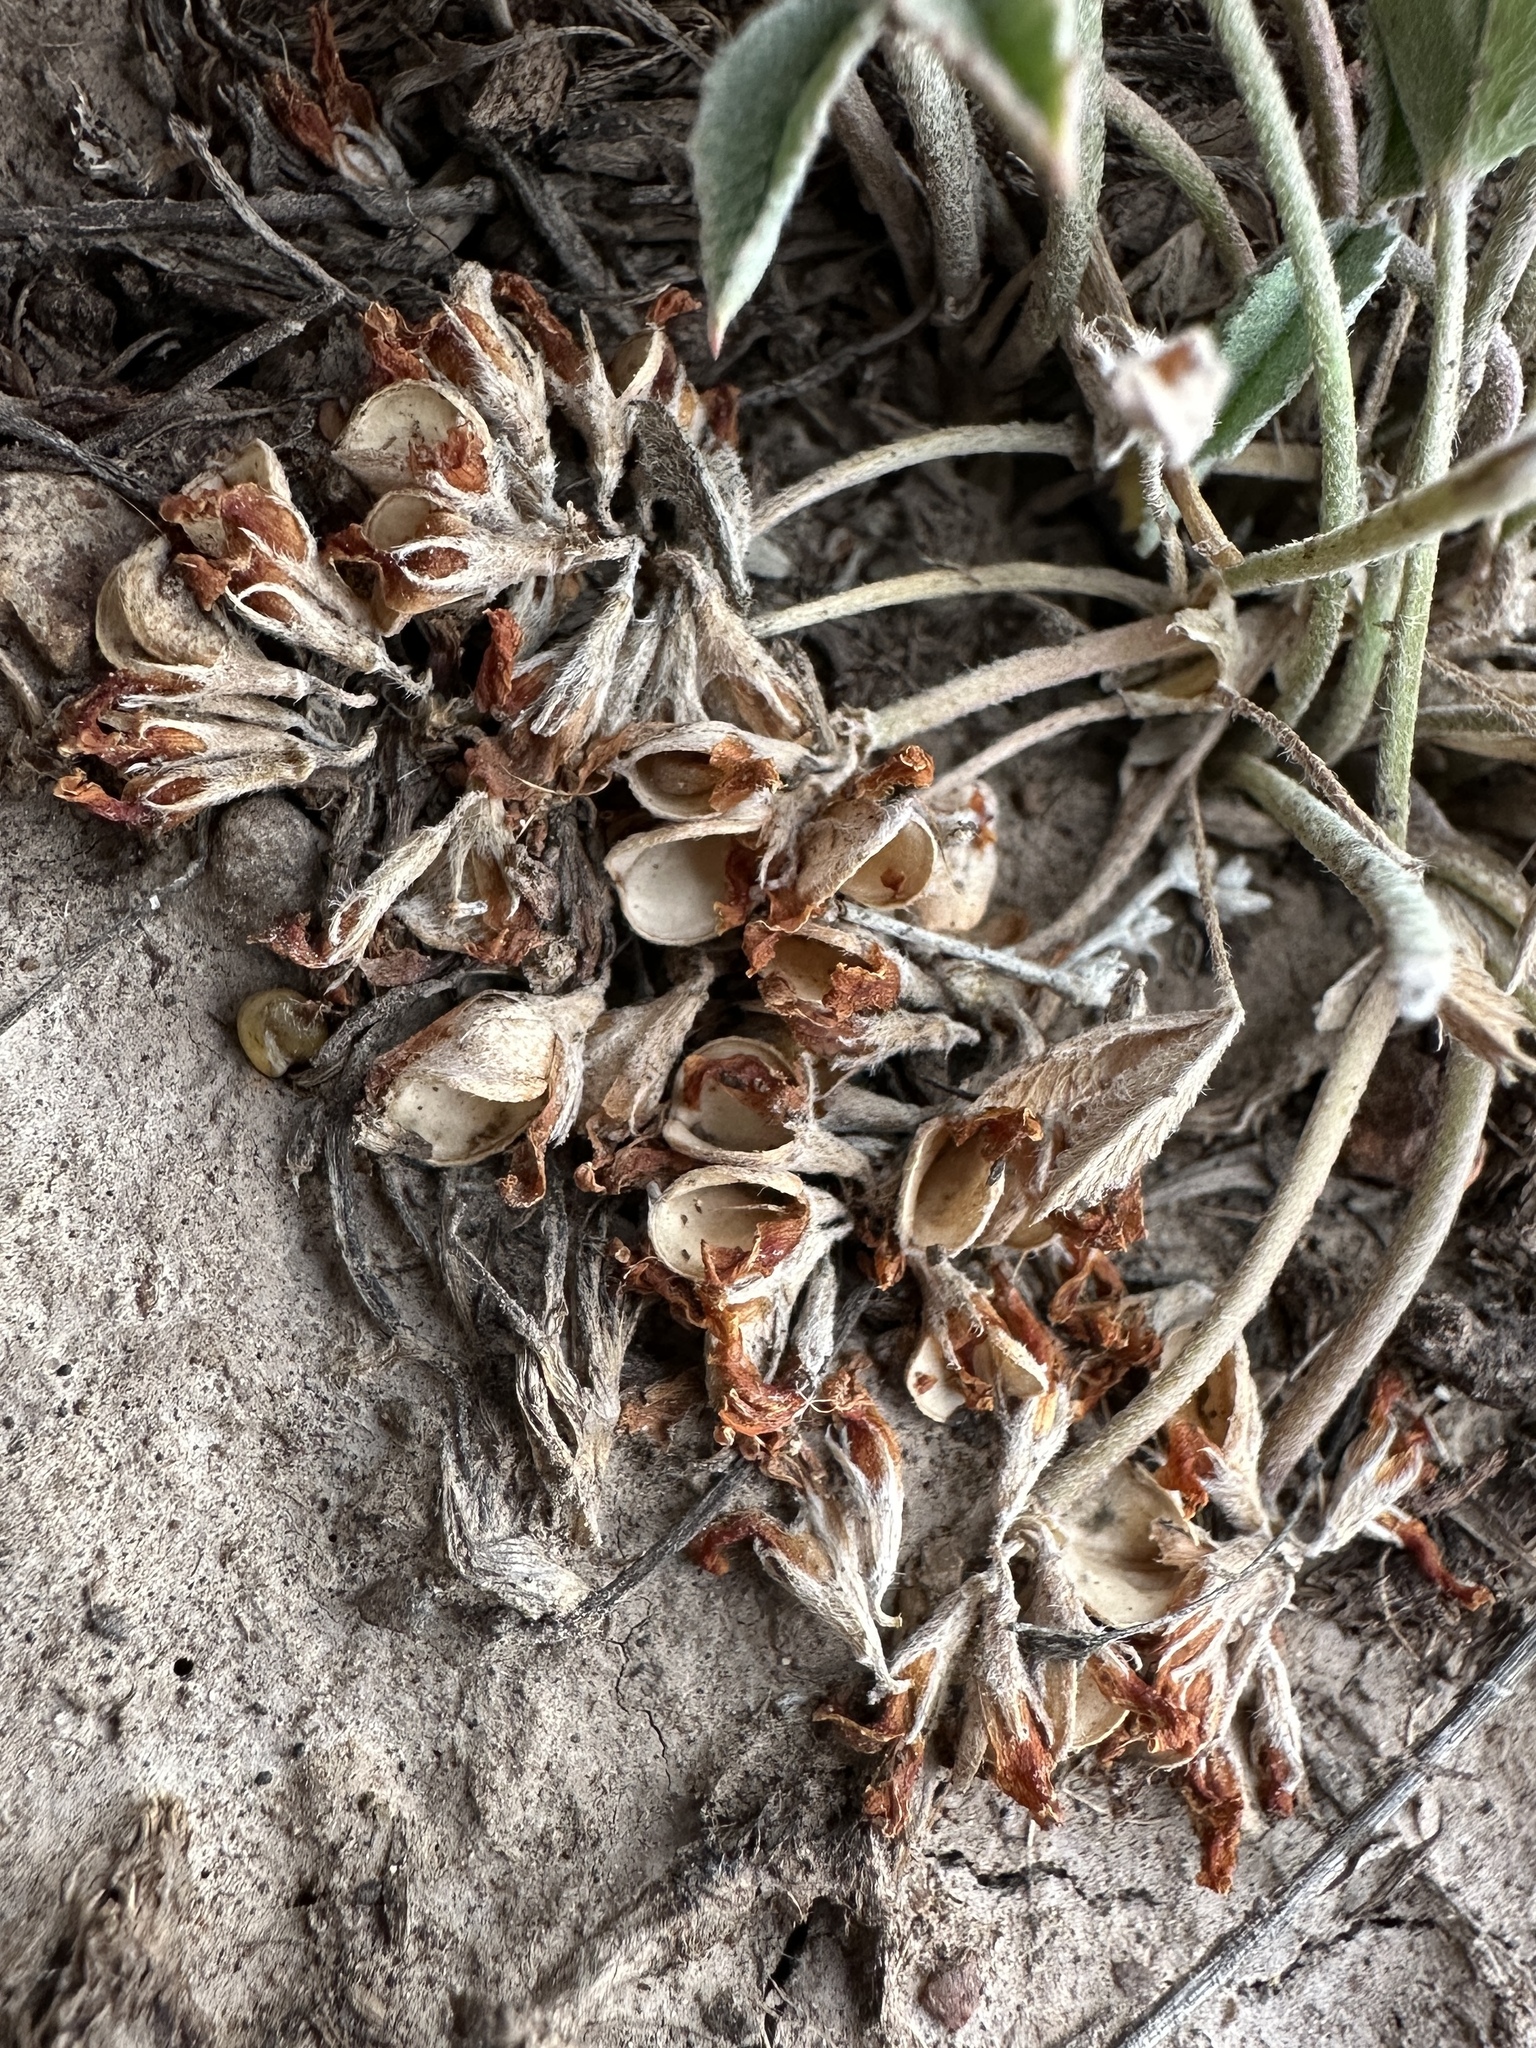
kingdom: Plantae
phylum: Tracheophyta
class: Magnoliopsida
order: Fabales
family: Fabaceae
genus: Trifolium
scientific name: Trifolium gymnocarpon
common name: Tufted clover
